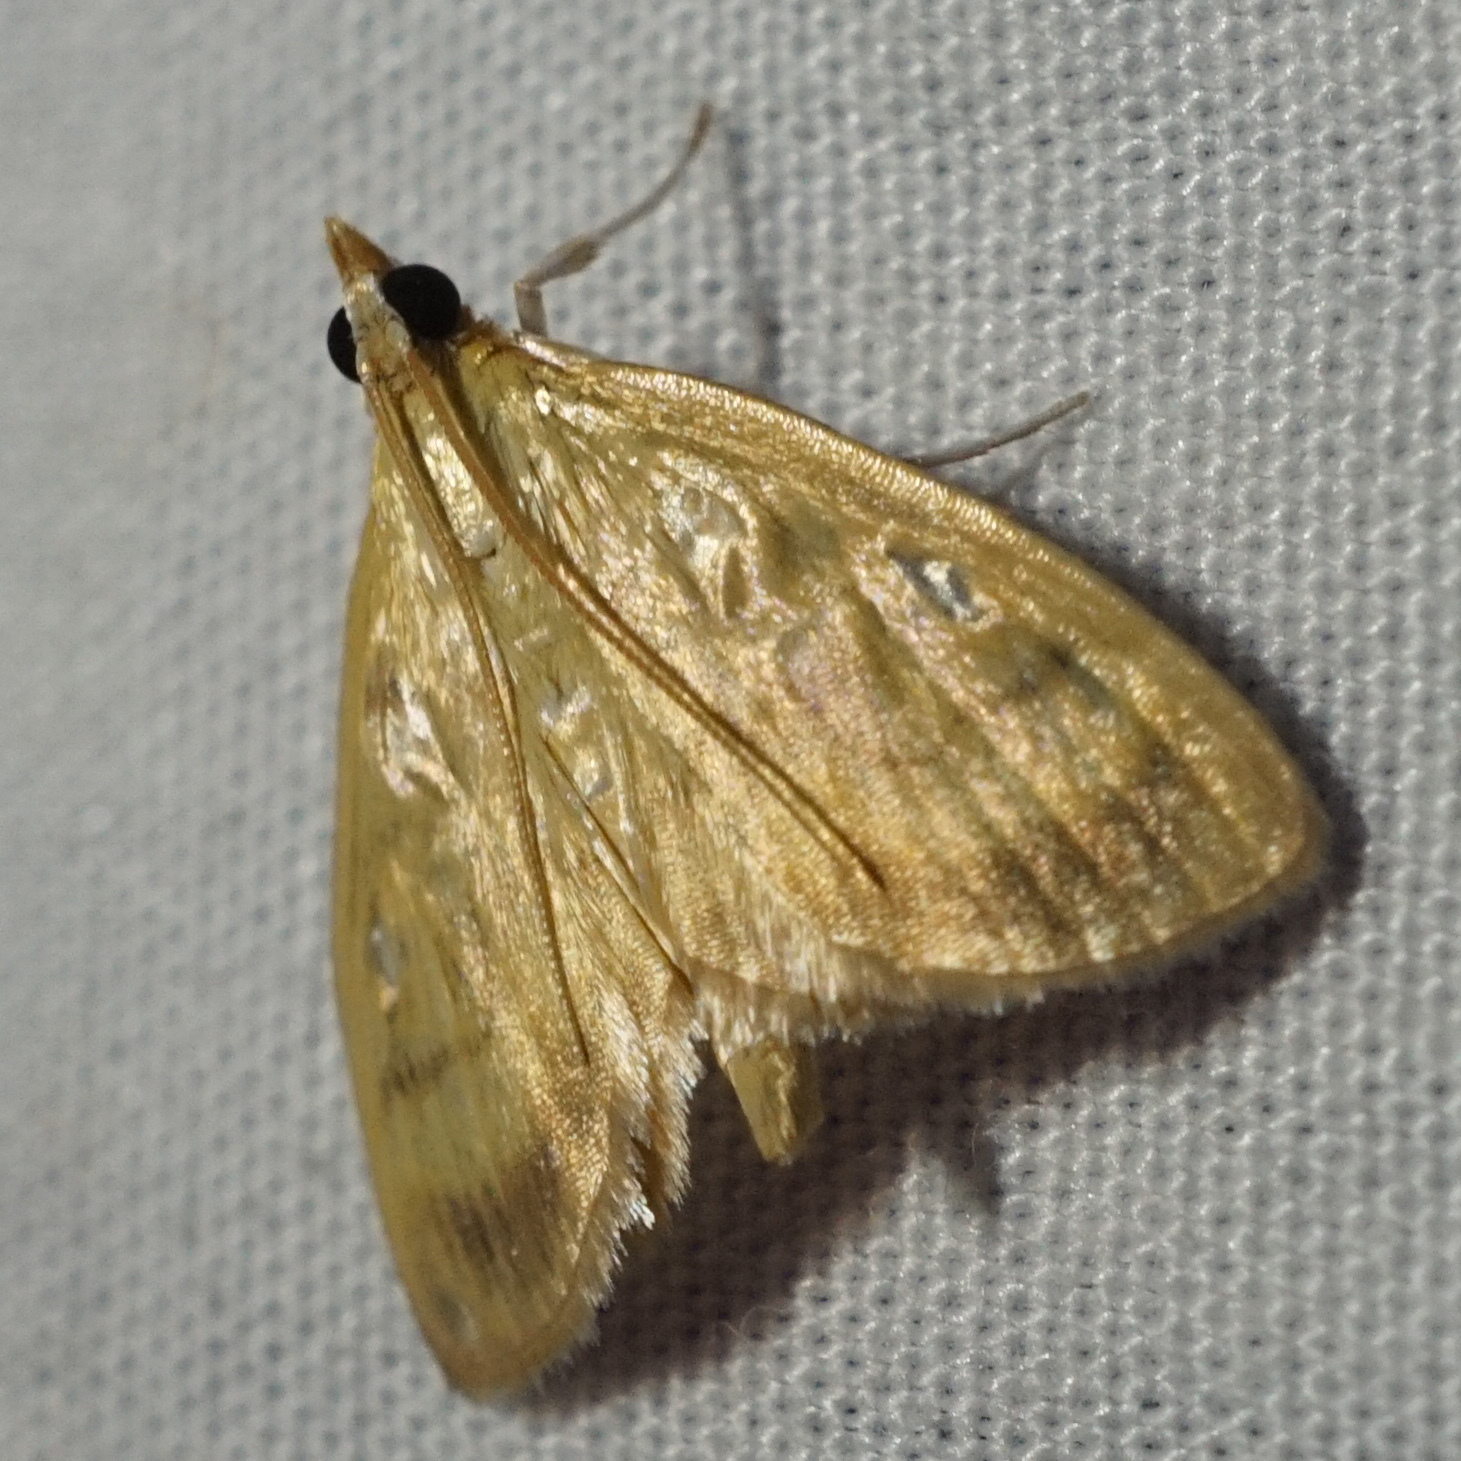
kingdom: Animalia
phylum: Arthropoda
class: Insecta
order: Lepidoptera
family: Crambidae
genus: Crocidophora
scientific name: Crocidophora tuberculalis
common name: Pale-winged crocidiphora moth
